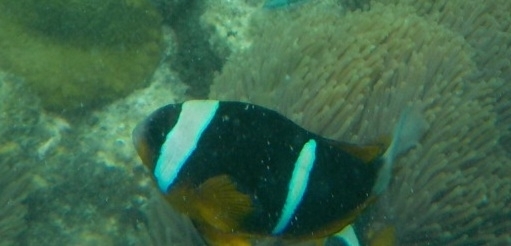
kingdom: Animalia
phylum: Chordata
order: Perciformes
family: Pomacentridae
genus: Amphiprion
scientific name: Amphiprion allardi
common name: Allard's anemonefish
